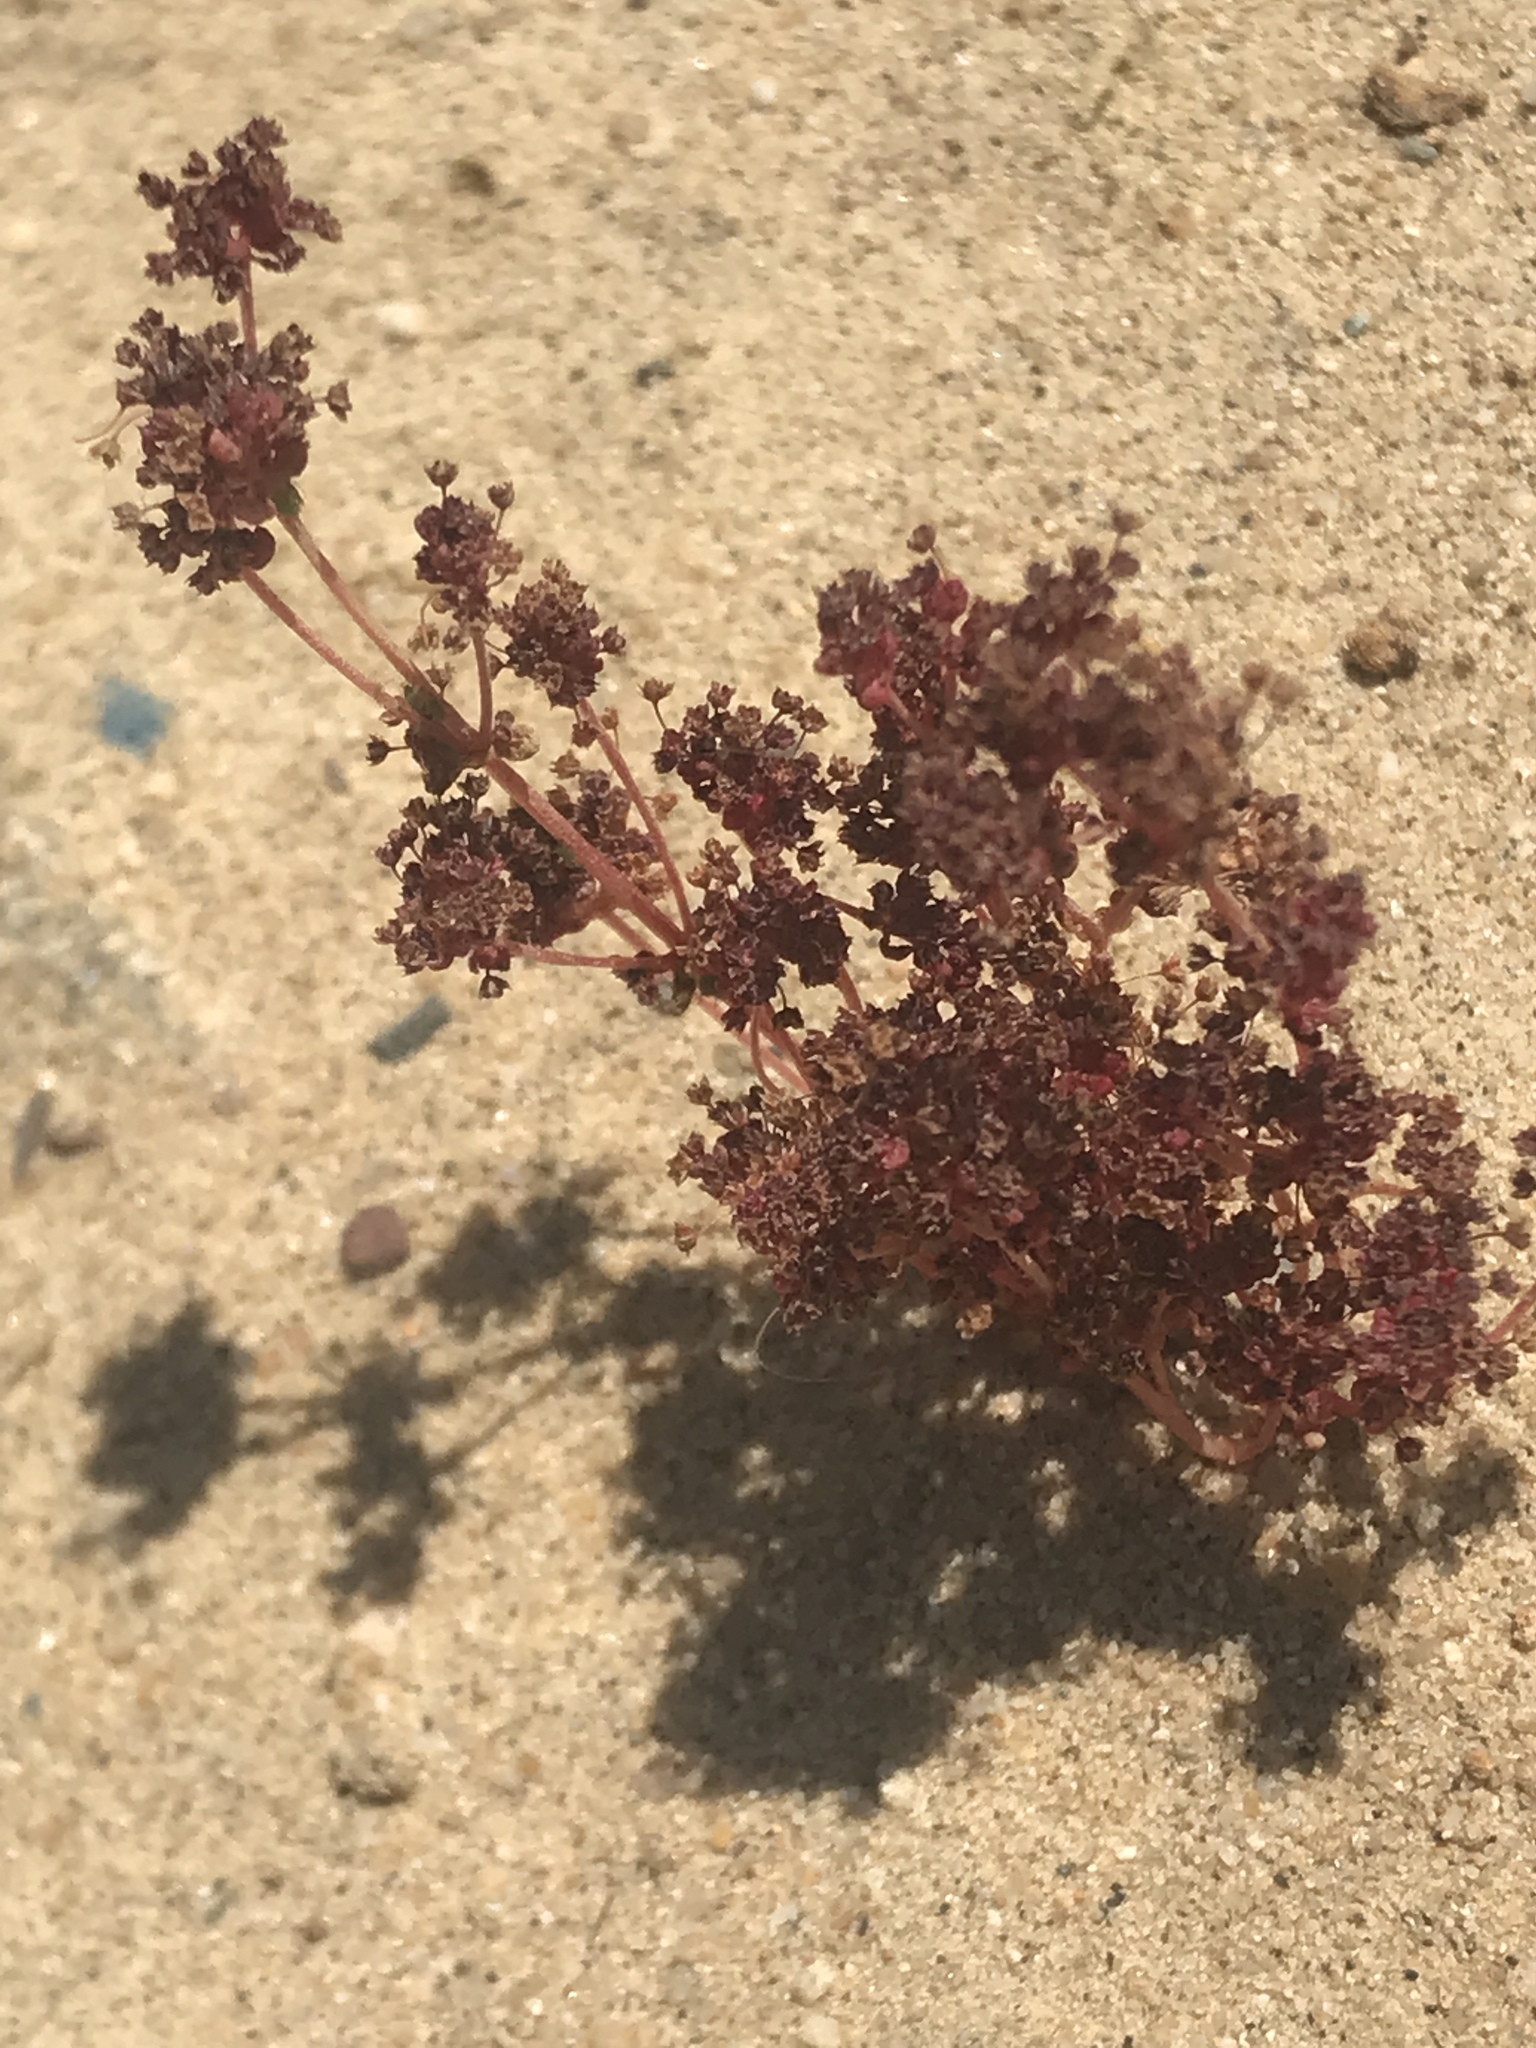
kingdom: Plantae
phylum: Tracheophyta
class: Magnoliopsida
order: Saxifragales
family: Crassulaceae
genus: Crassula
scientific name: Crassula connata
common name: Erect pygmyweed
